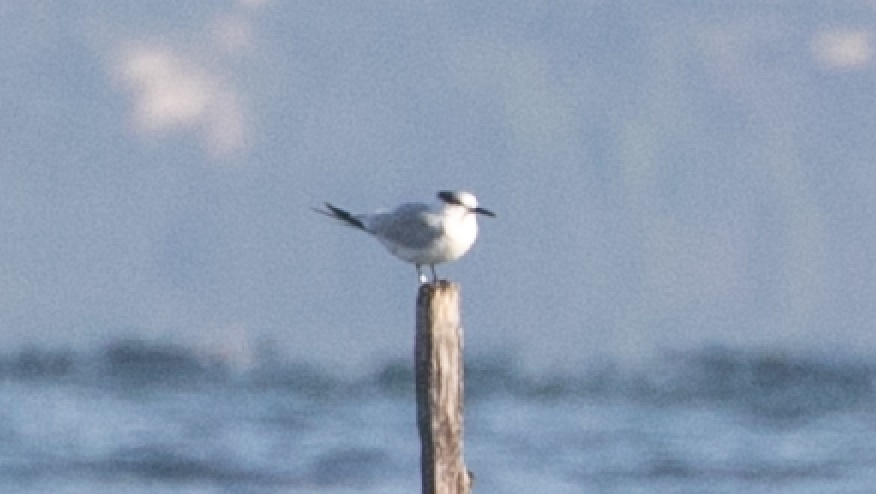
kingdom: Animalia
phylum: Chordata
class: Aves
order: Charadriiformes
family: Laridae
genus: Thalasseus
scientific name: Thalasseus sandvicensis
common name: Sandwich tern
